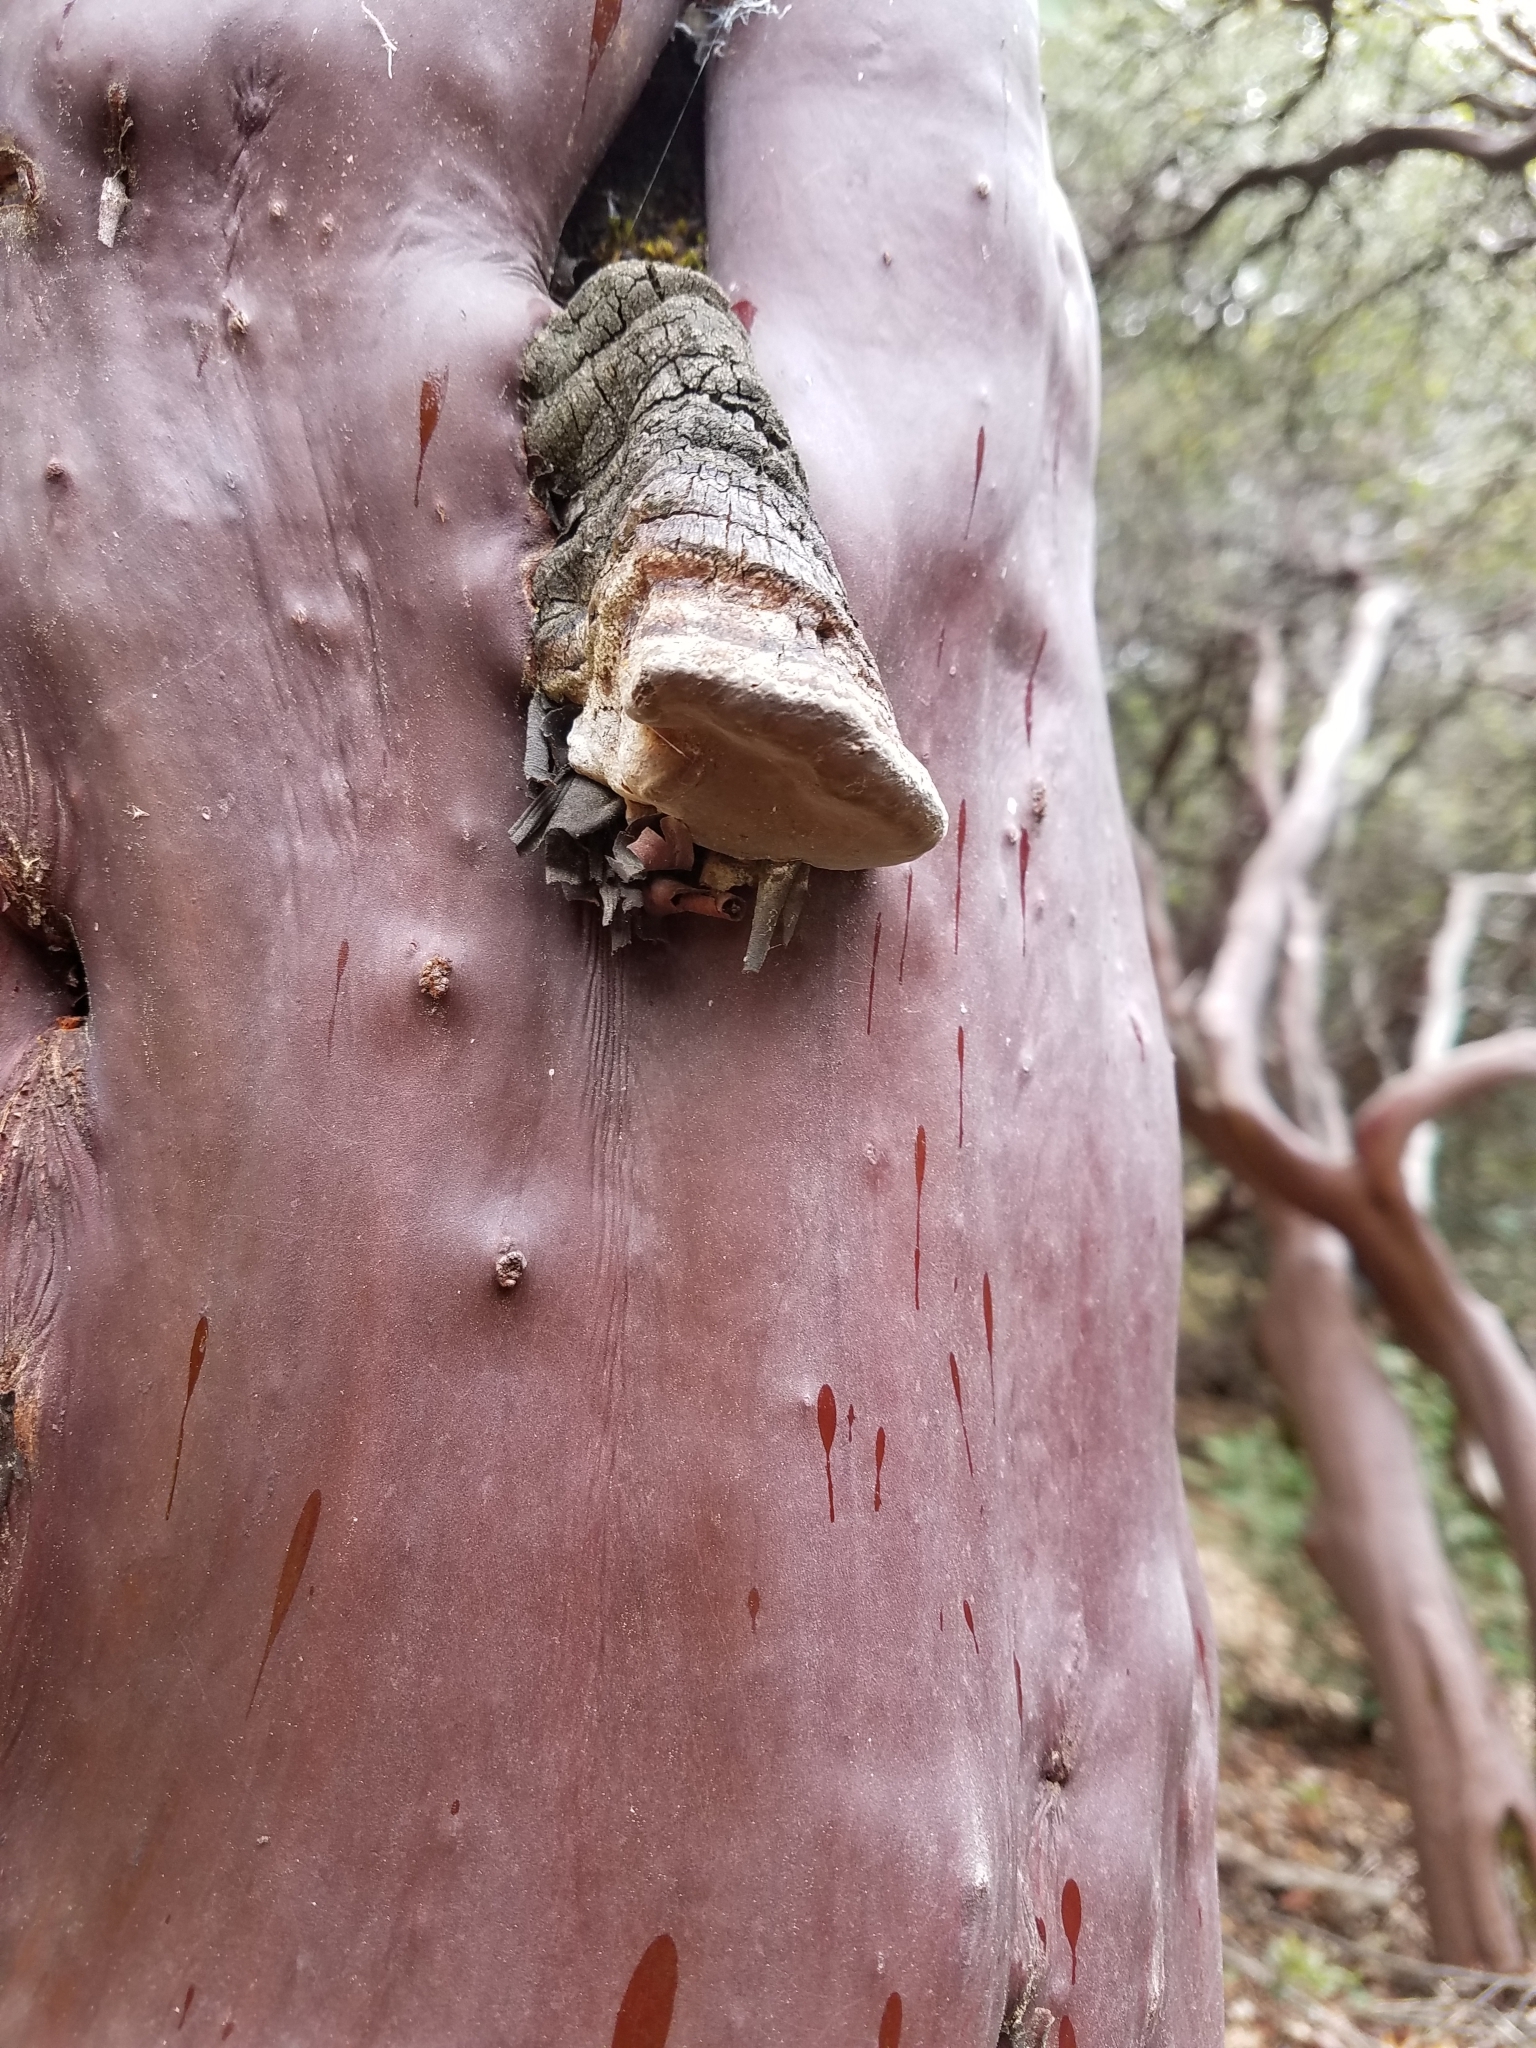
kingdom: Fungi
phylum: Basidiomycota
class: Agaricomycetes
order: Polyporales
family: Polyporaceae
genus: Fomes
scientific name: Fomes arctostaphyli
